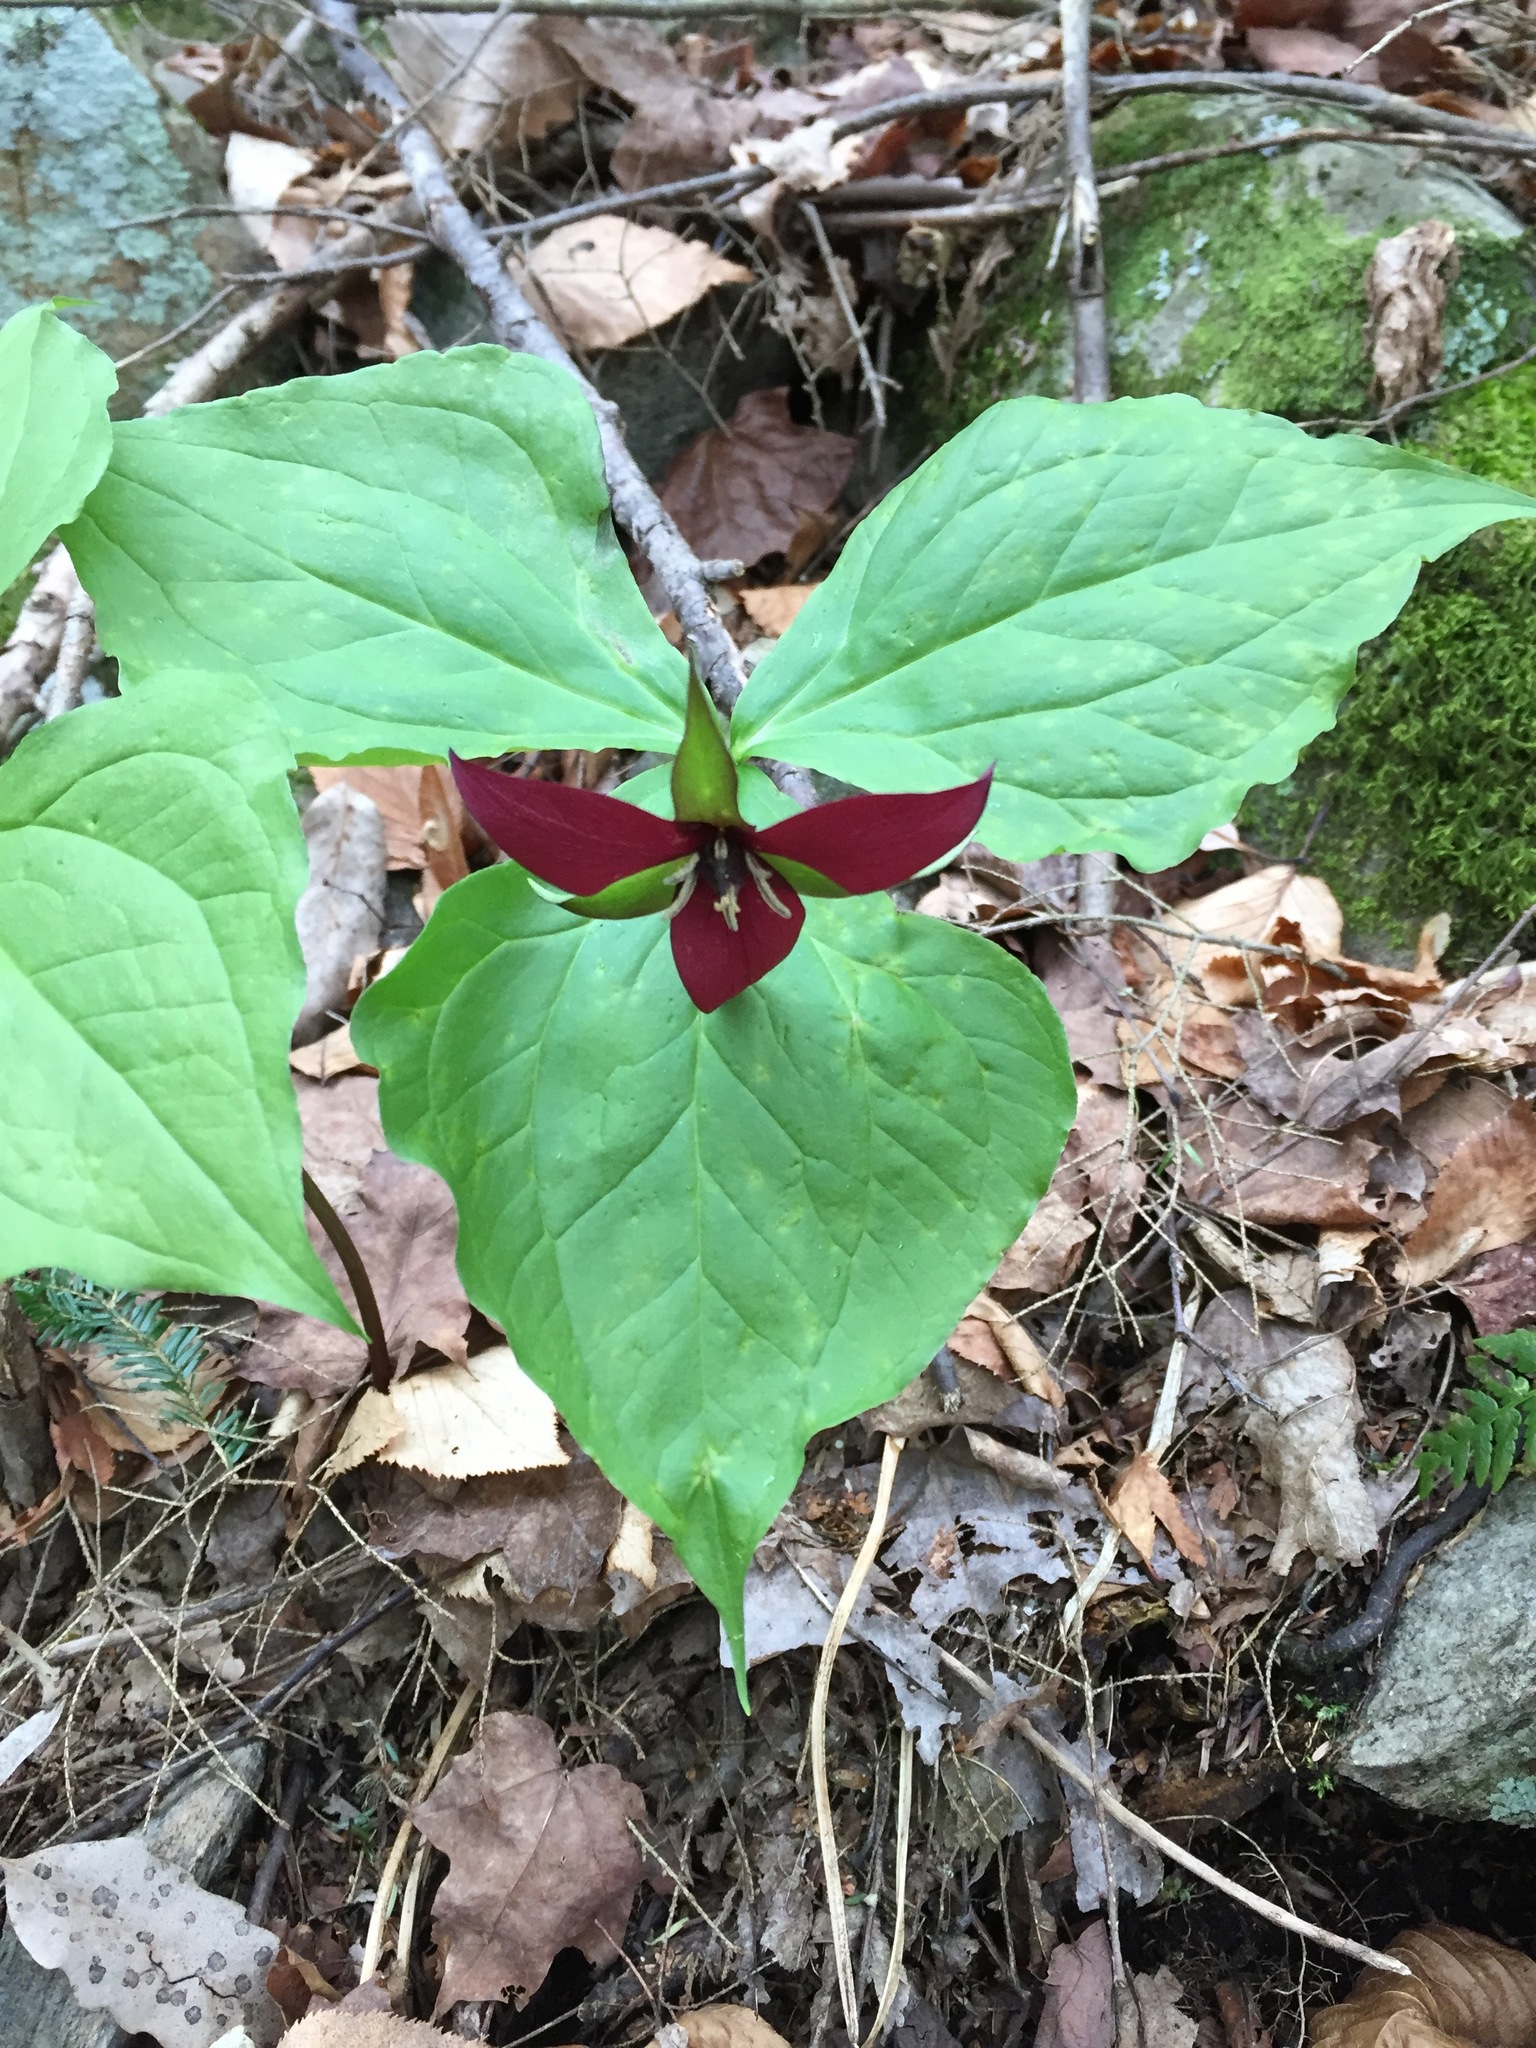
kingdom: Plantae
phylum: Tracheophyta
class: Liliopsida
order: Liliales
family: Melanthiaceae
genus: Trillium
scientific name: Trillium erectum
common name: Purple trillium
